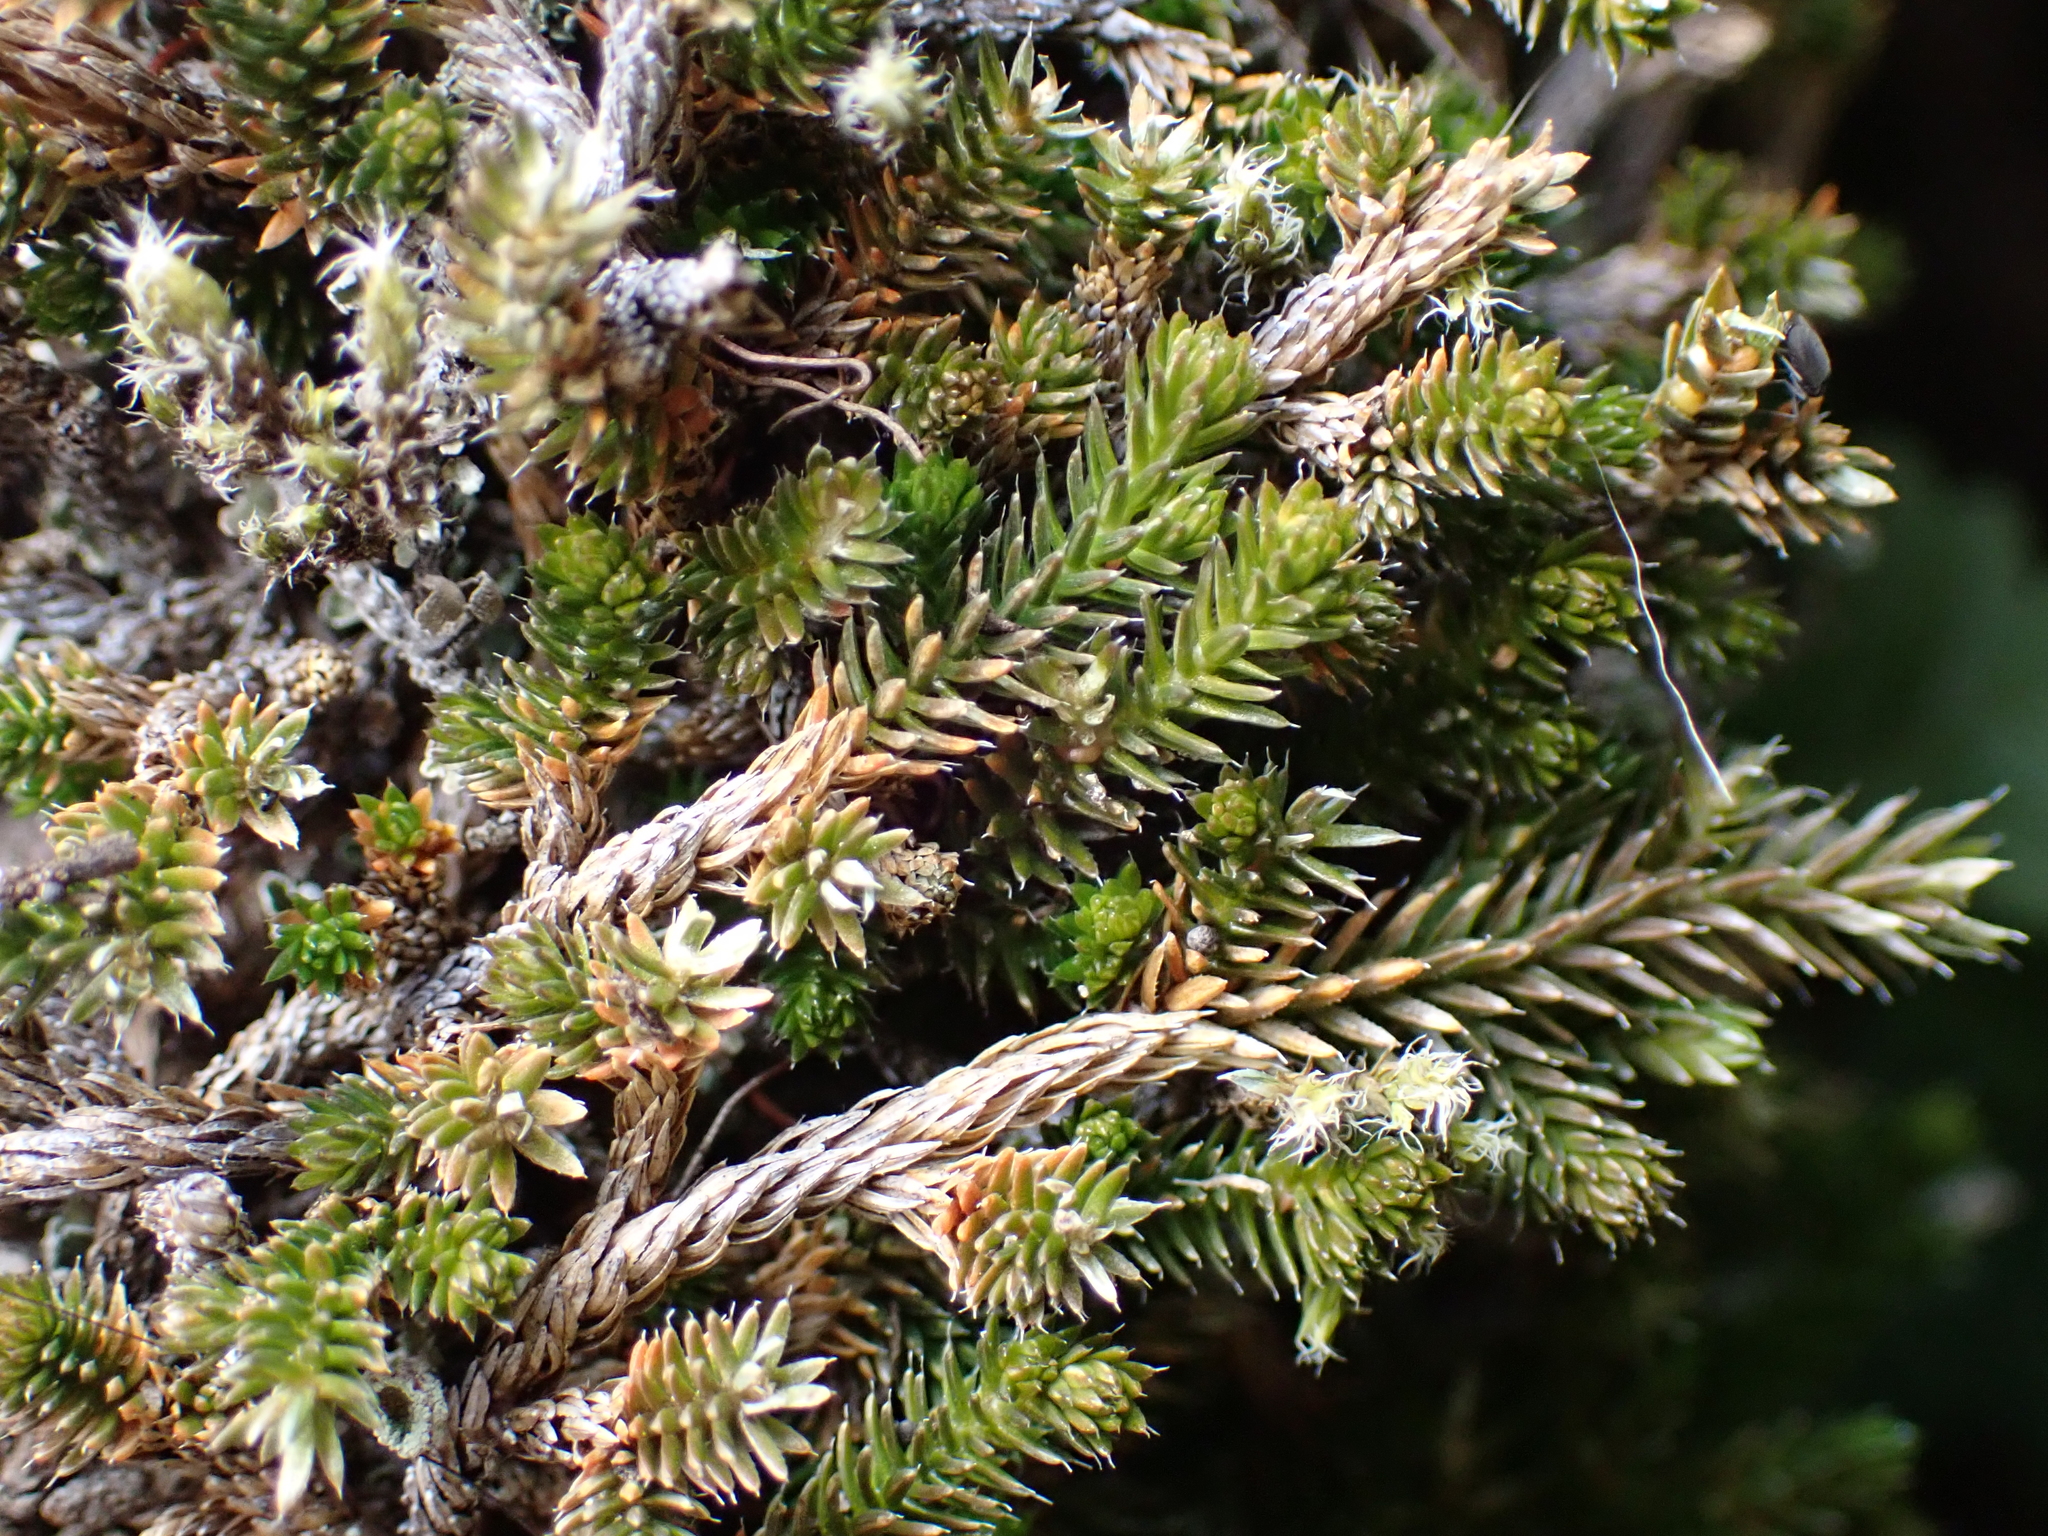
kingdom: Plantae
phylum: Tracheophyta
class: Lycopodiopsida
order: Selaginellales
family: Selaginellaceae
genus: Selaginella
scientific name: Selaginella wallacei
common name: Wallace's selaginella
